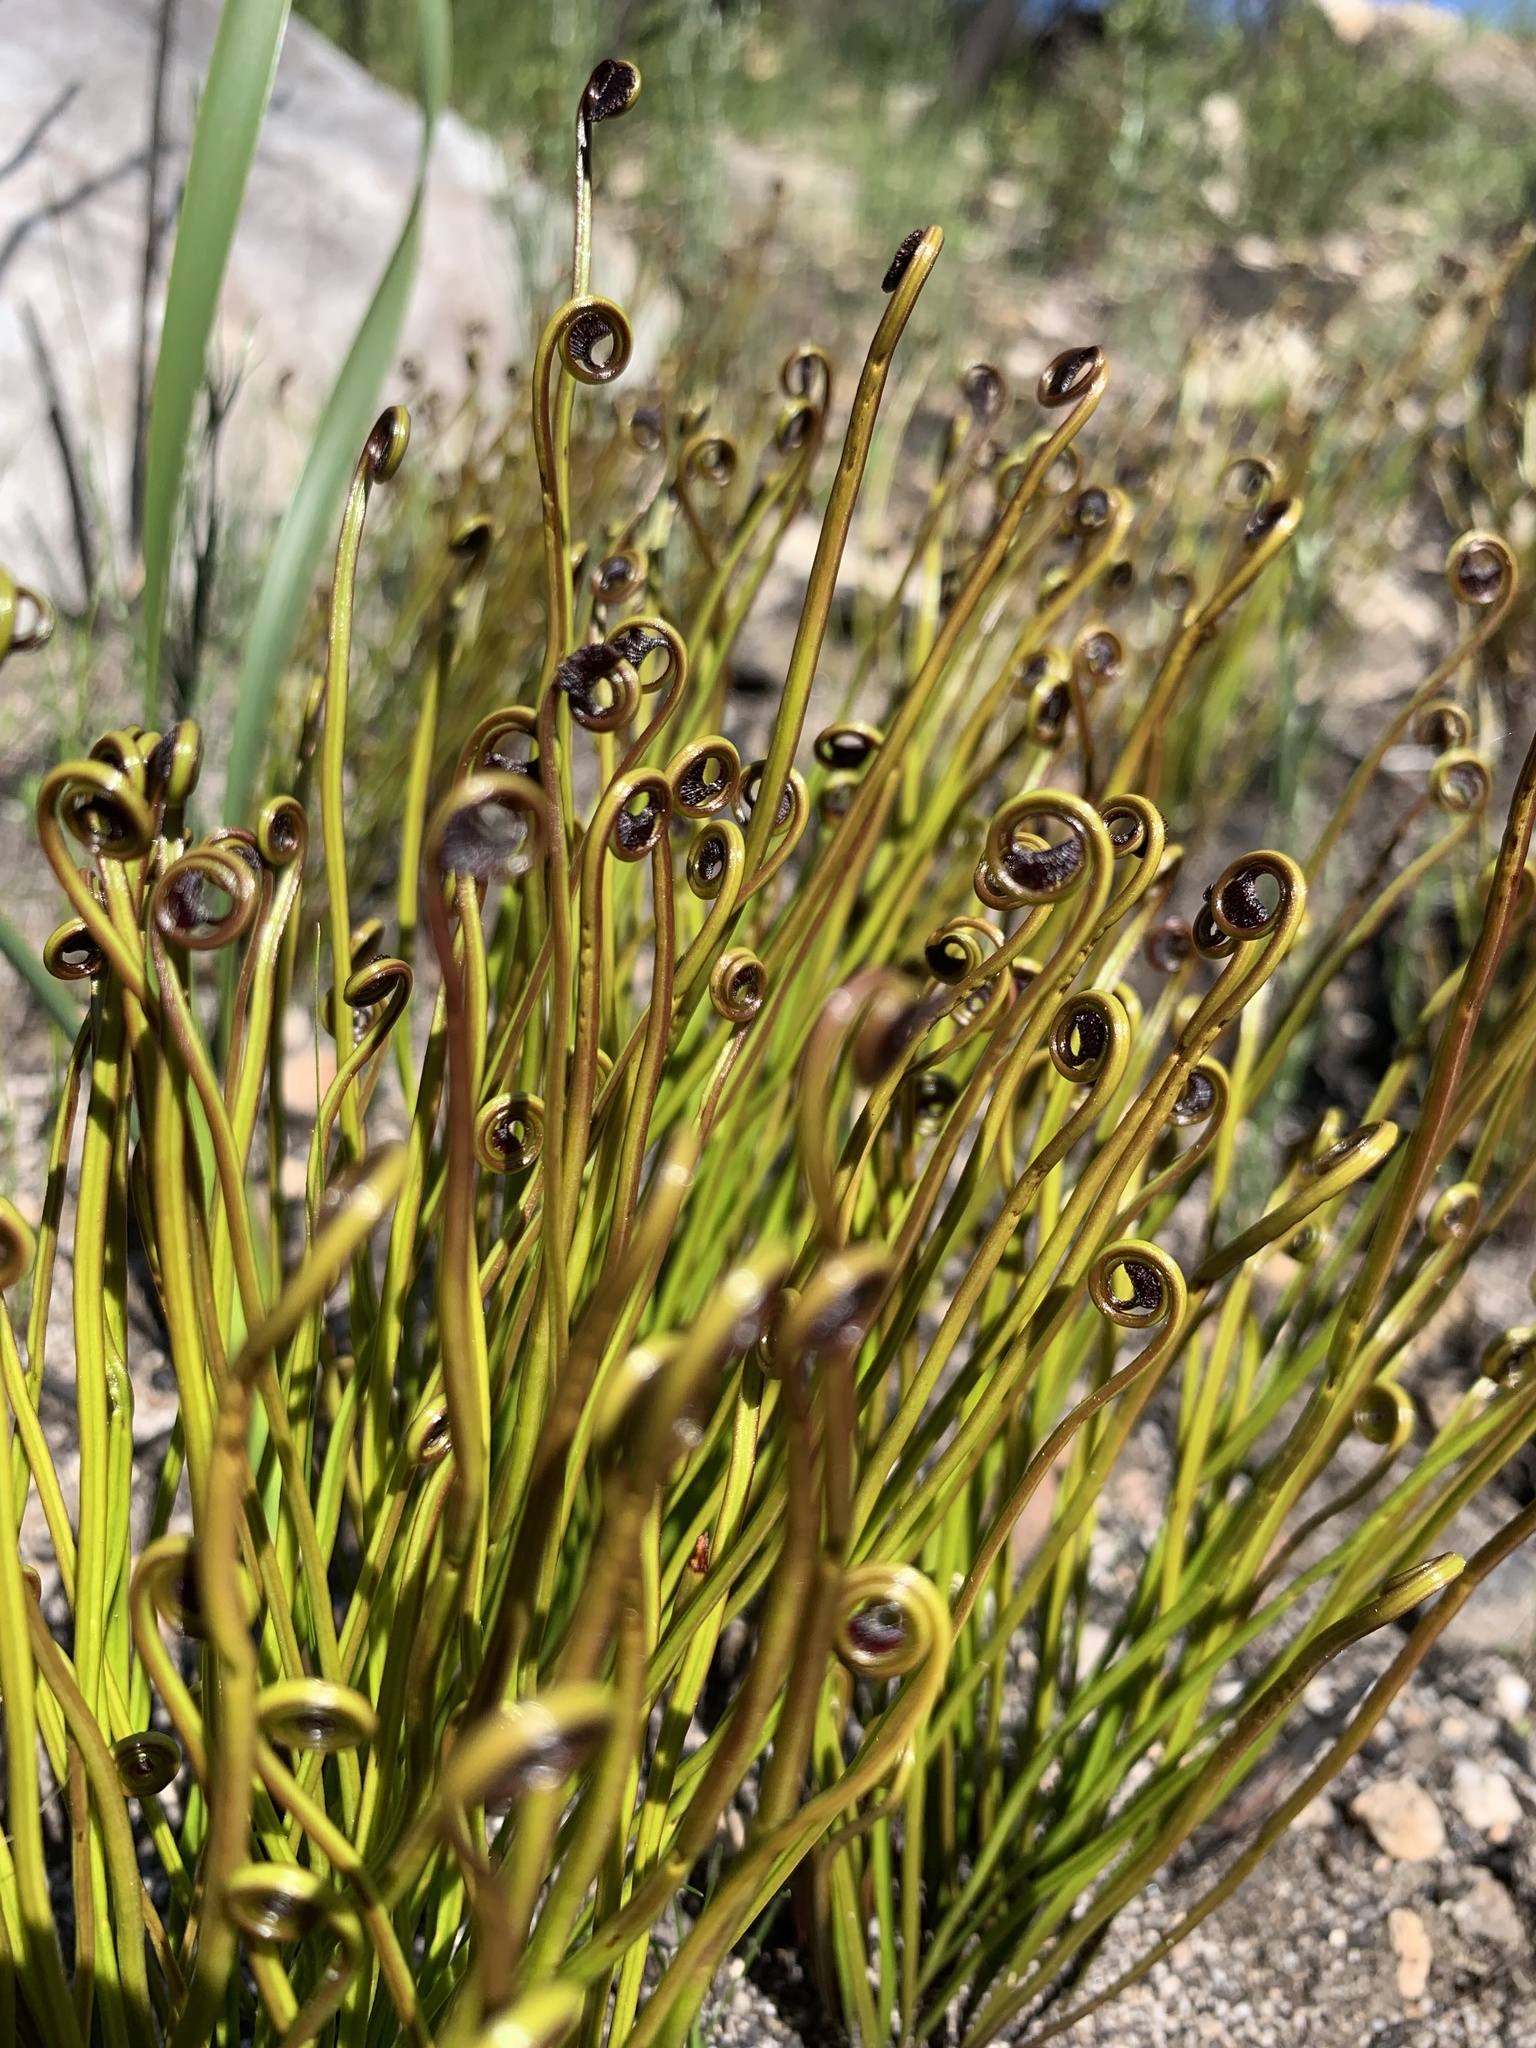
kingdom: Plantae
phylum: Tracheophyta
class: Polypodiopsida
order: Schizaeales
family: Schizaeaceae
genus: Schizaea
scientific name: Schizaea pectinata
